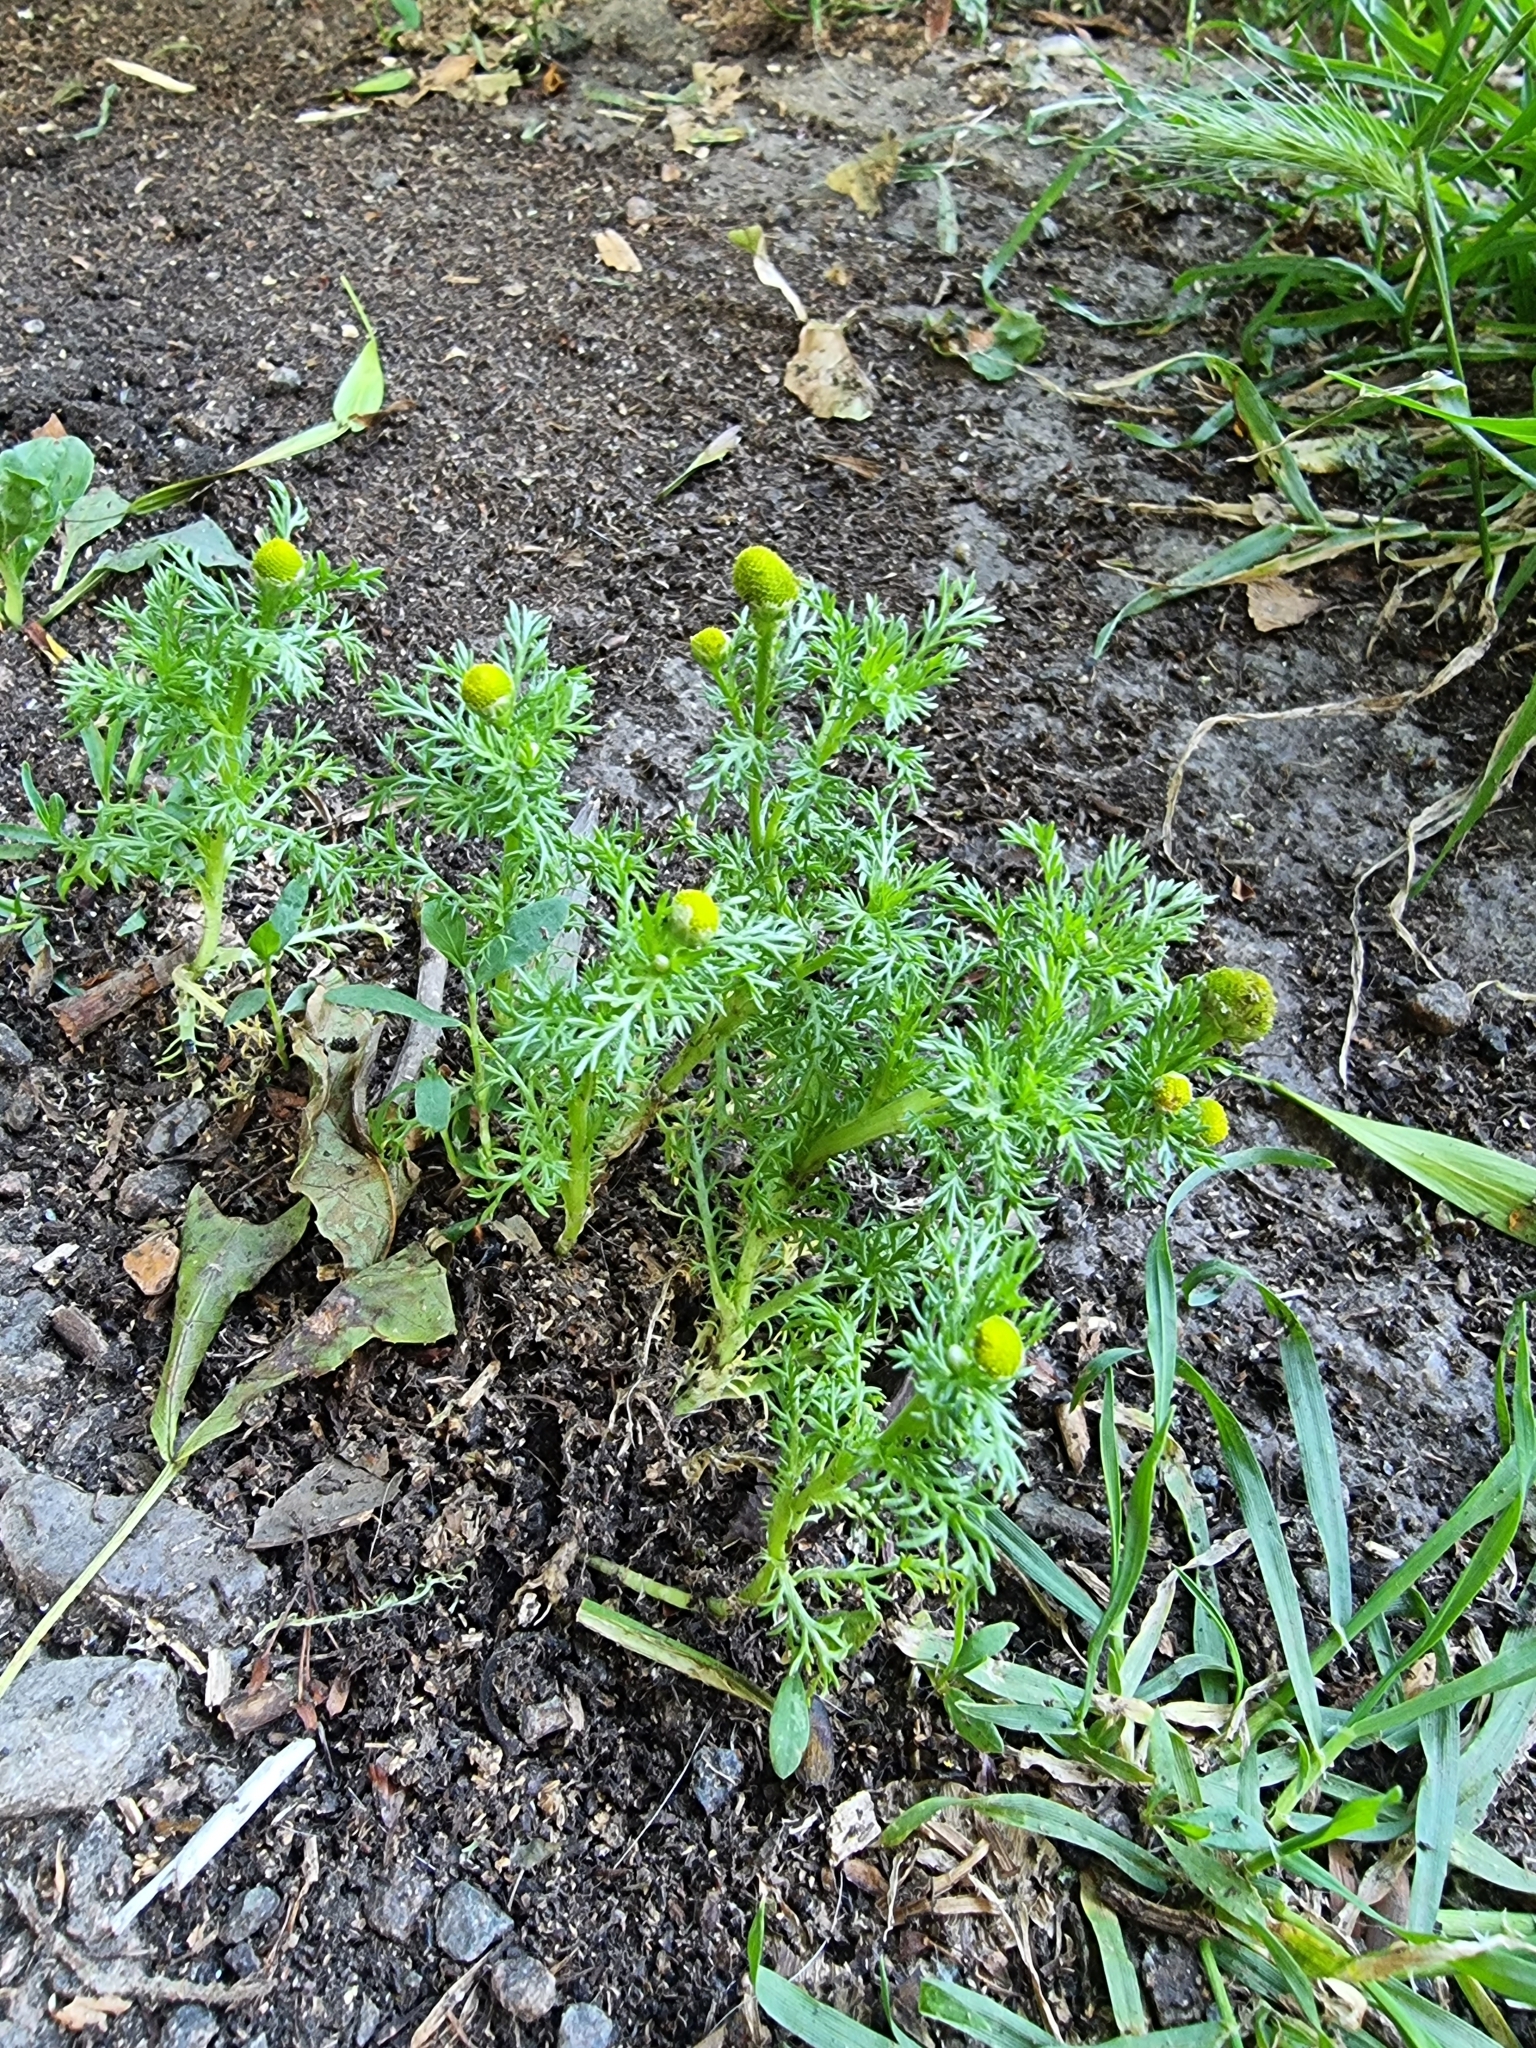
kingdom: Plantae
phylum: Tracheophyta
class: Magnoliopsida
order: Asterales
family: Asteraceae
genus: Matricaria
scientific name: Matricaria discoidea
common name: Disc mayweed
